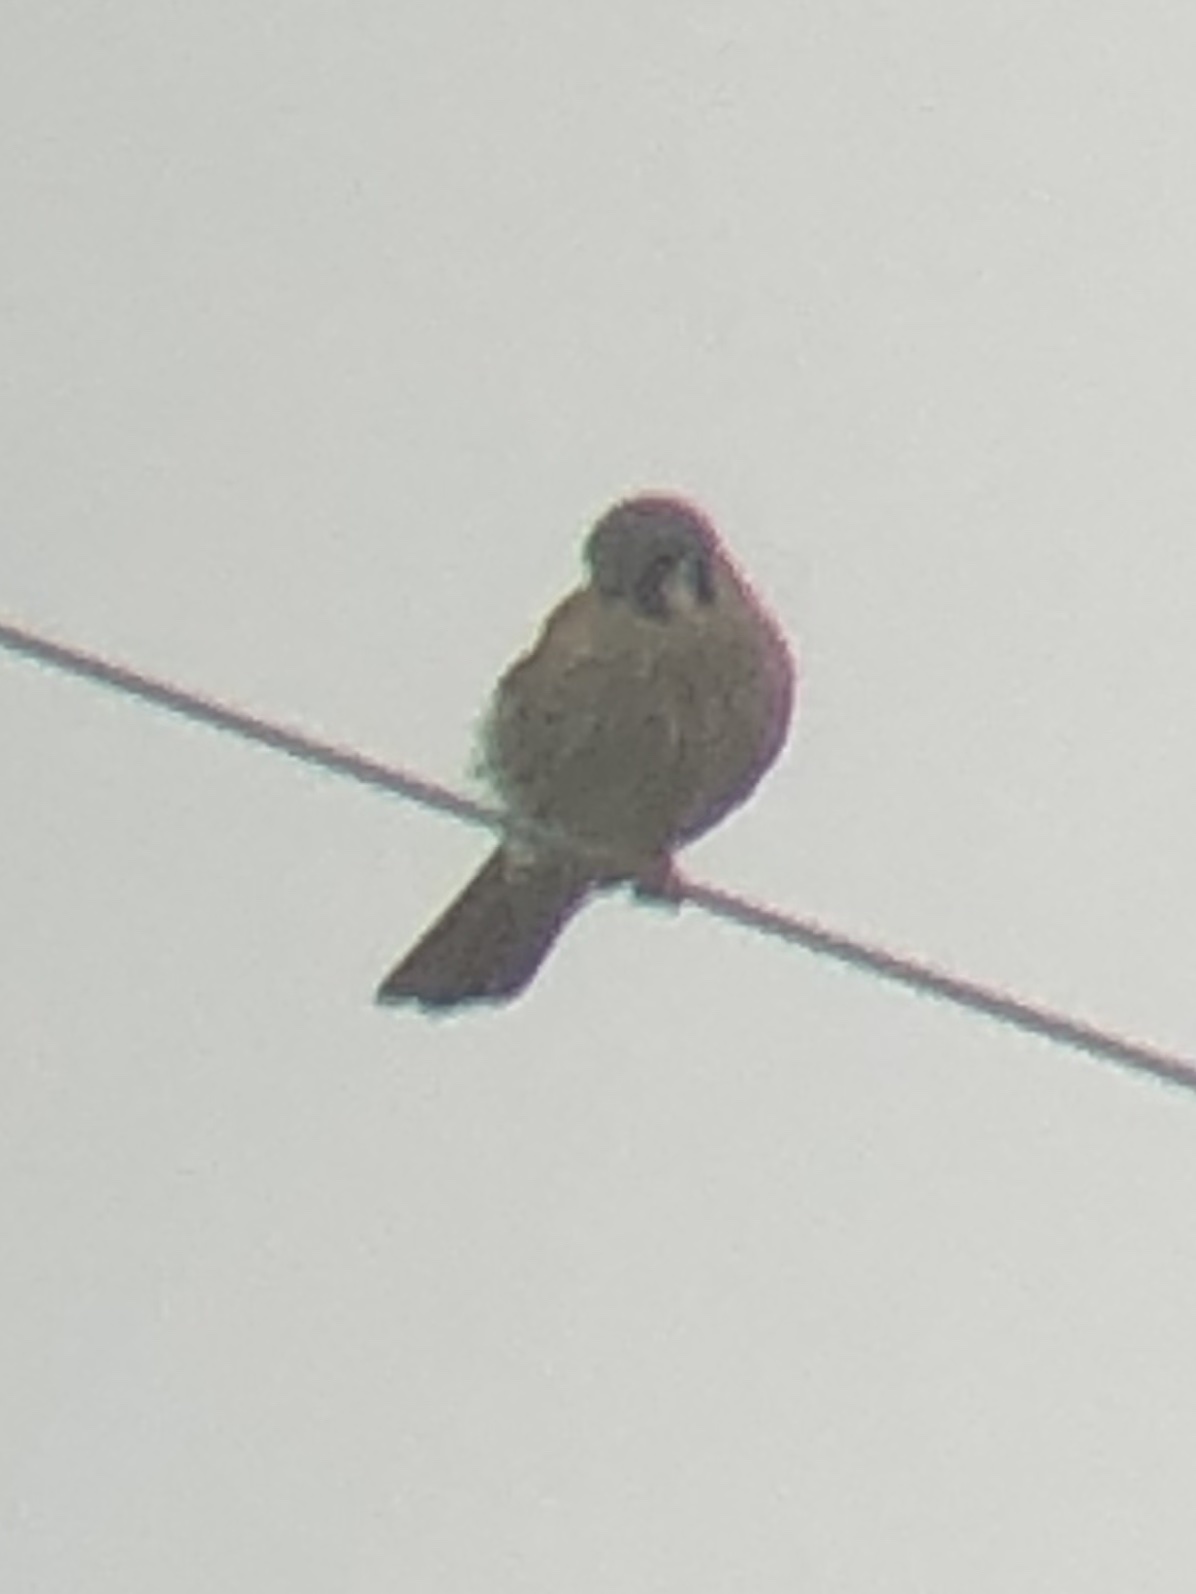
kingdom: Animalia
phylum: Chordata
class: Aves
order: Falconiformes
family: Falconidae
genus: Falco
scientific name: Falco sparverius
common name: American kestrel
